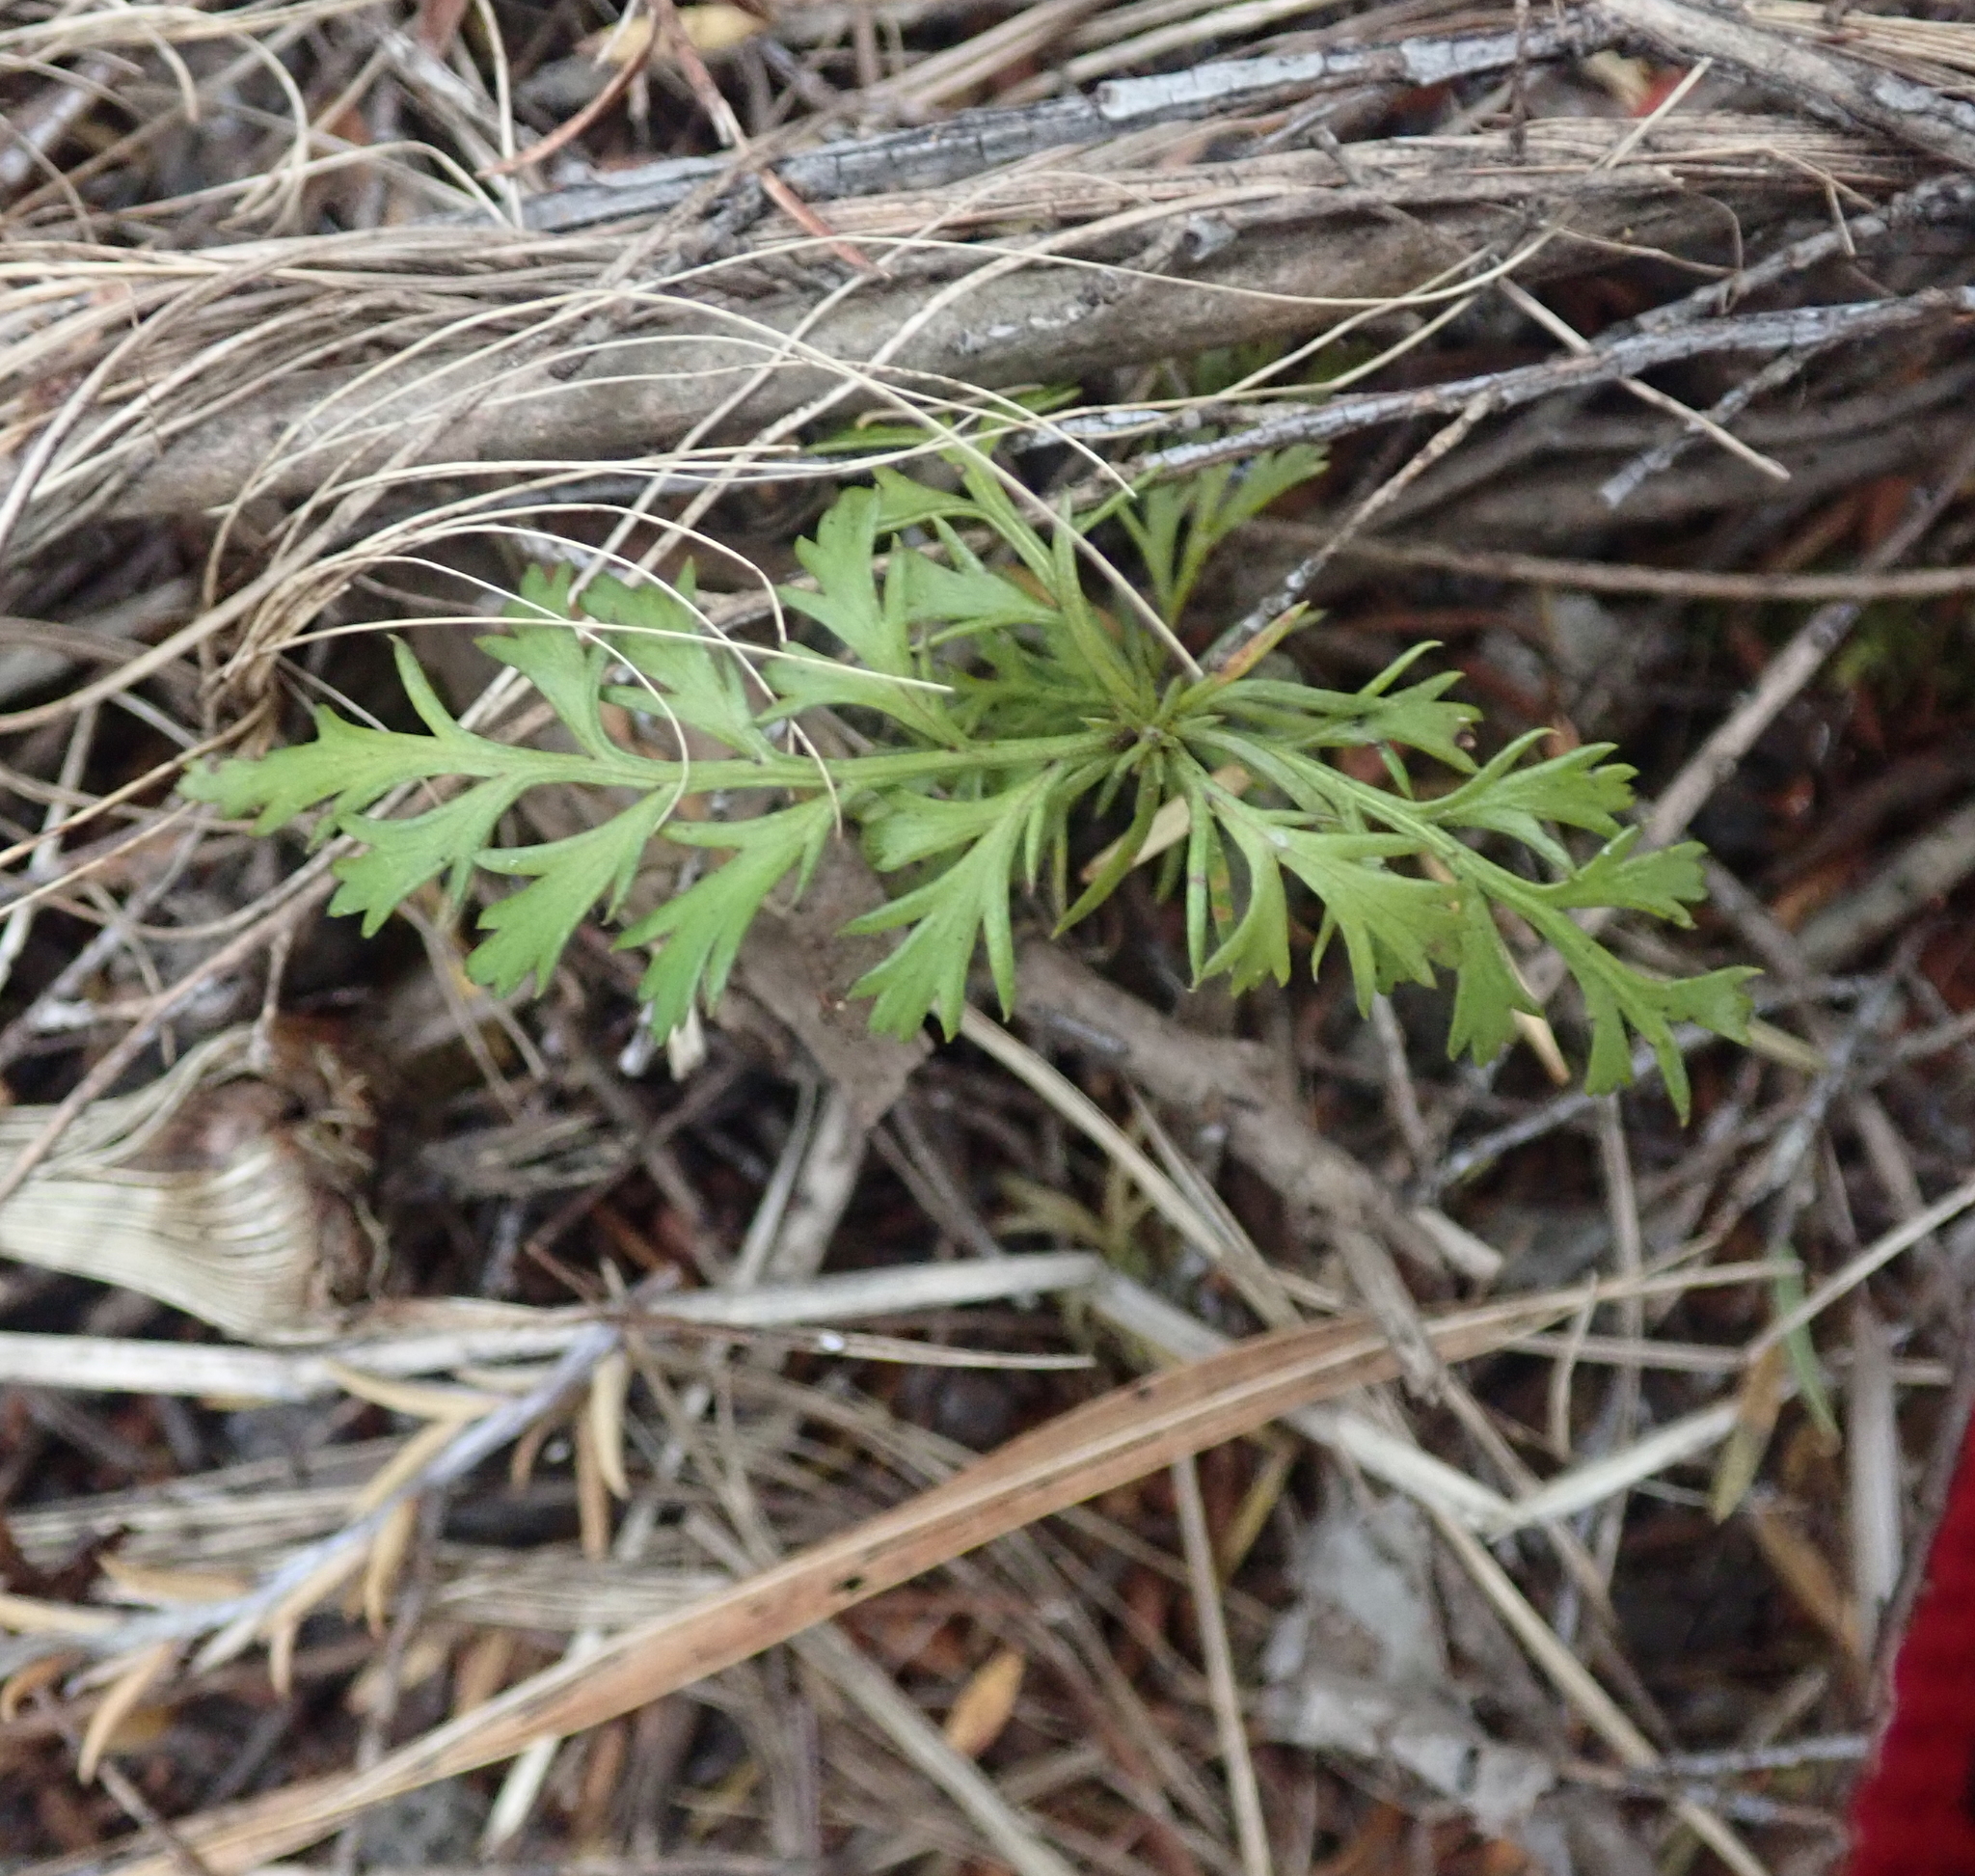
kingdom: Plantae
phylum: Tracheophyta
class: Pinopsida
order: Pinales
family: Phyllocladaceae
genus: Phyllocladus
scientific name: Phyllocladus trichomanoides
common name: Celery pine
